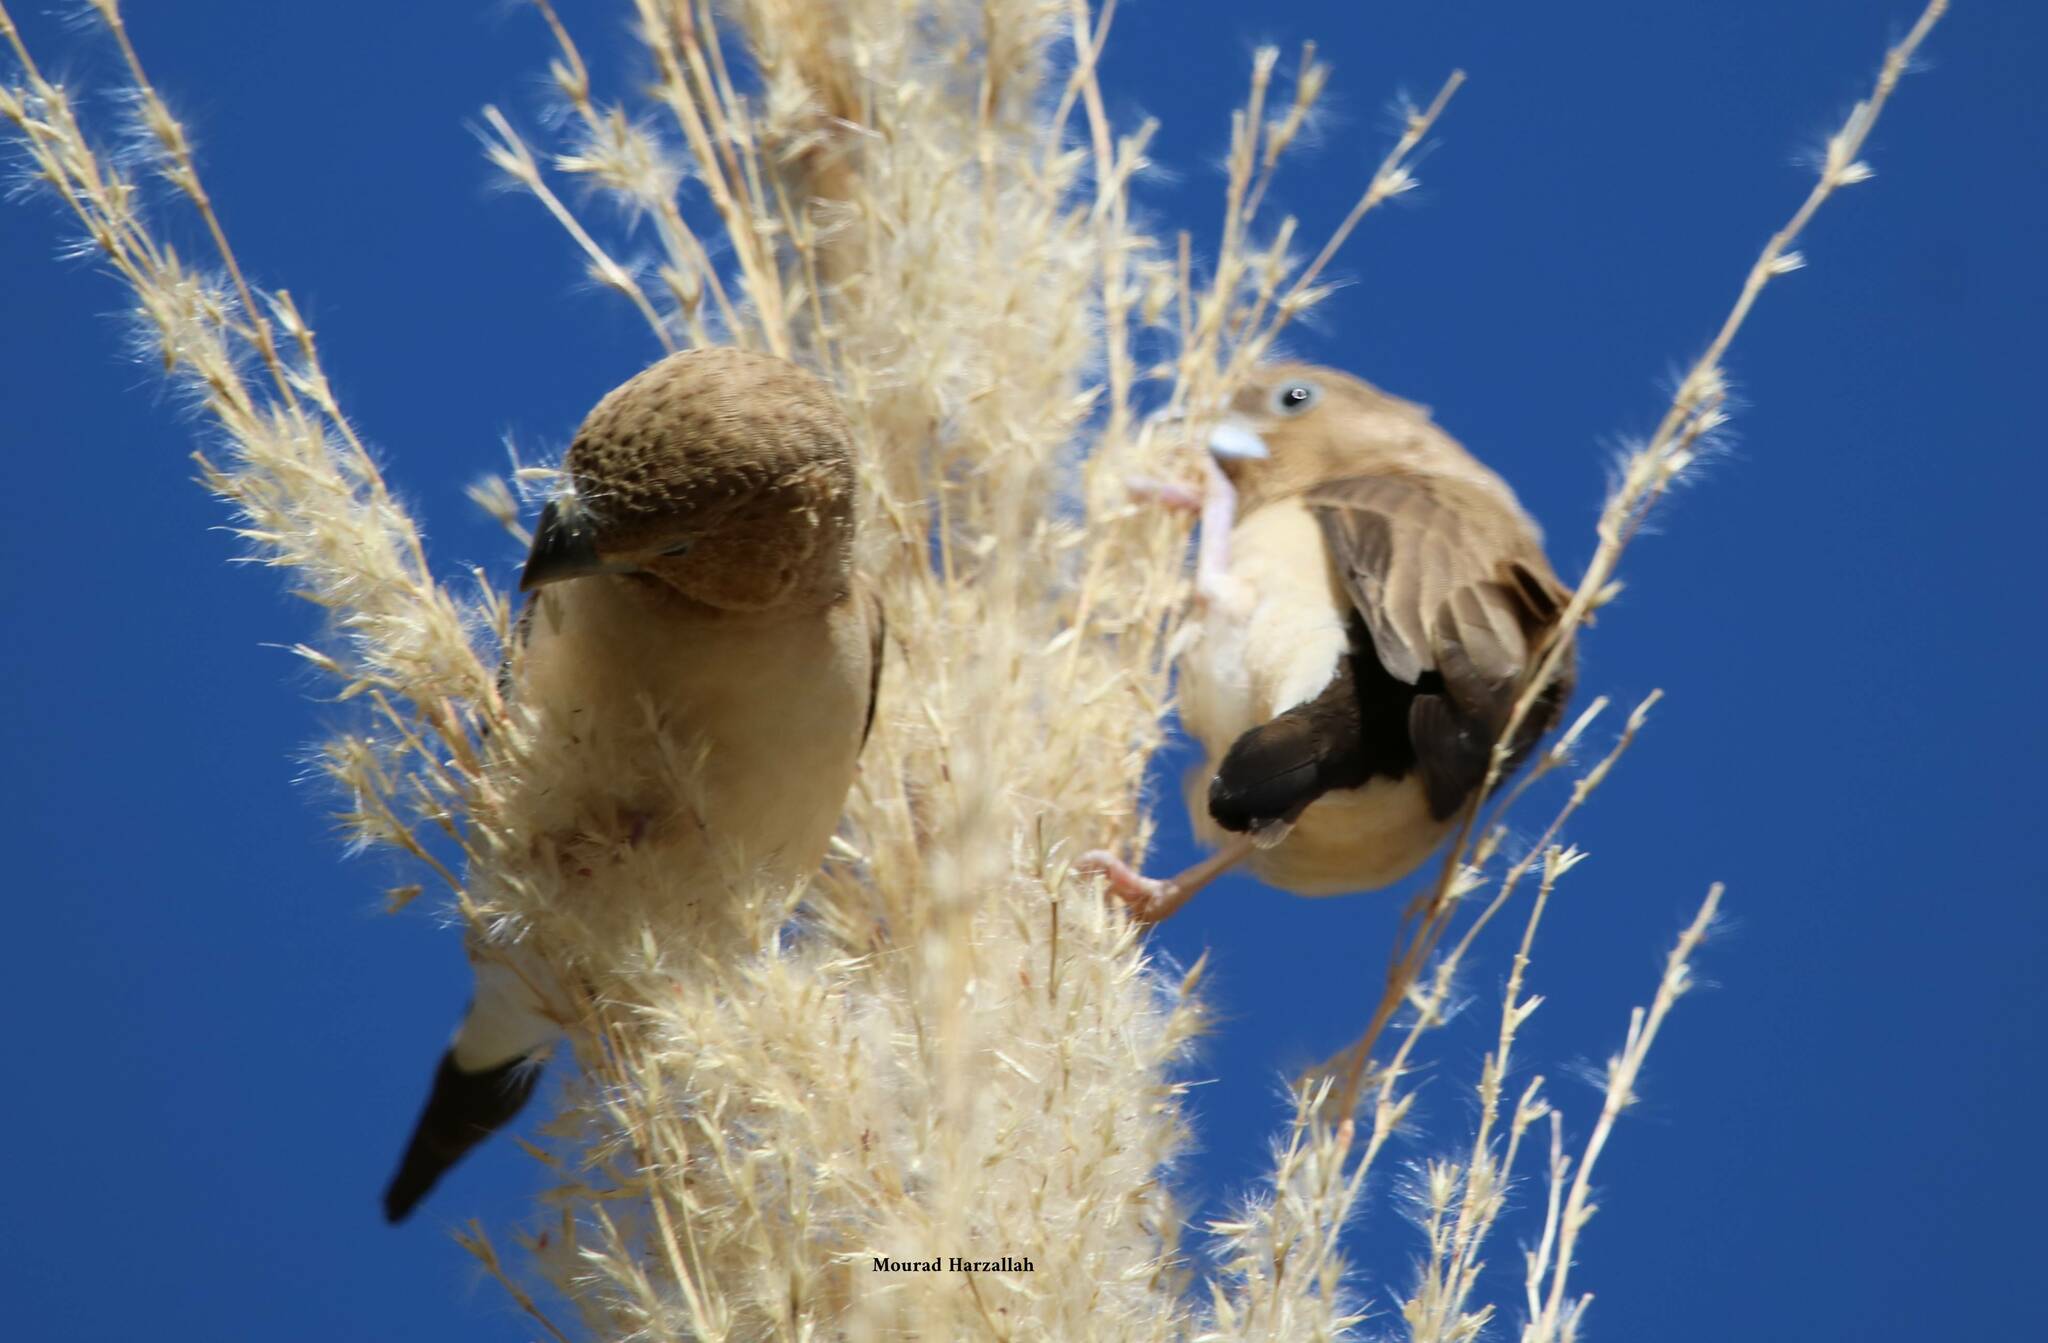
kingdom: Animalia
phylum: Chordata
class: Aves
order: Passeriformes
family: Estrildidae
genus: Euodice
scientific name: Euodice cantans
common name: African silverbill
